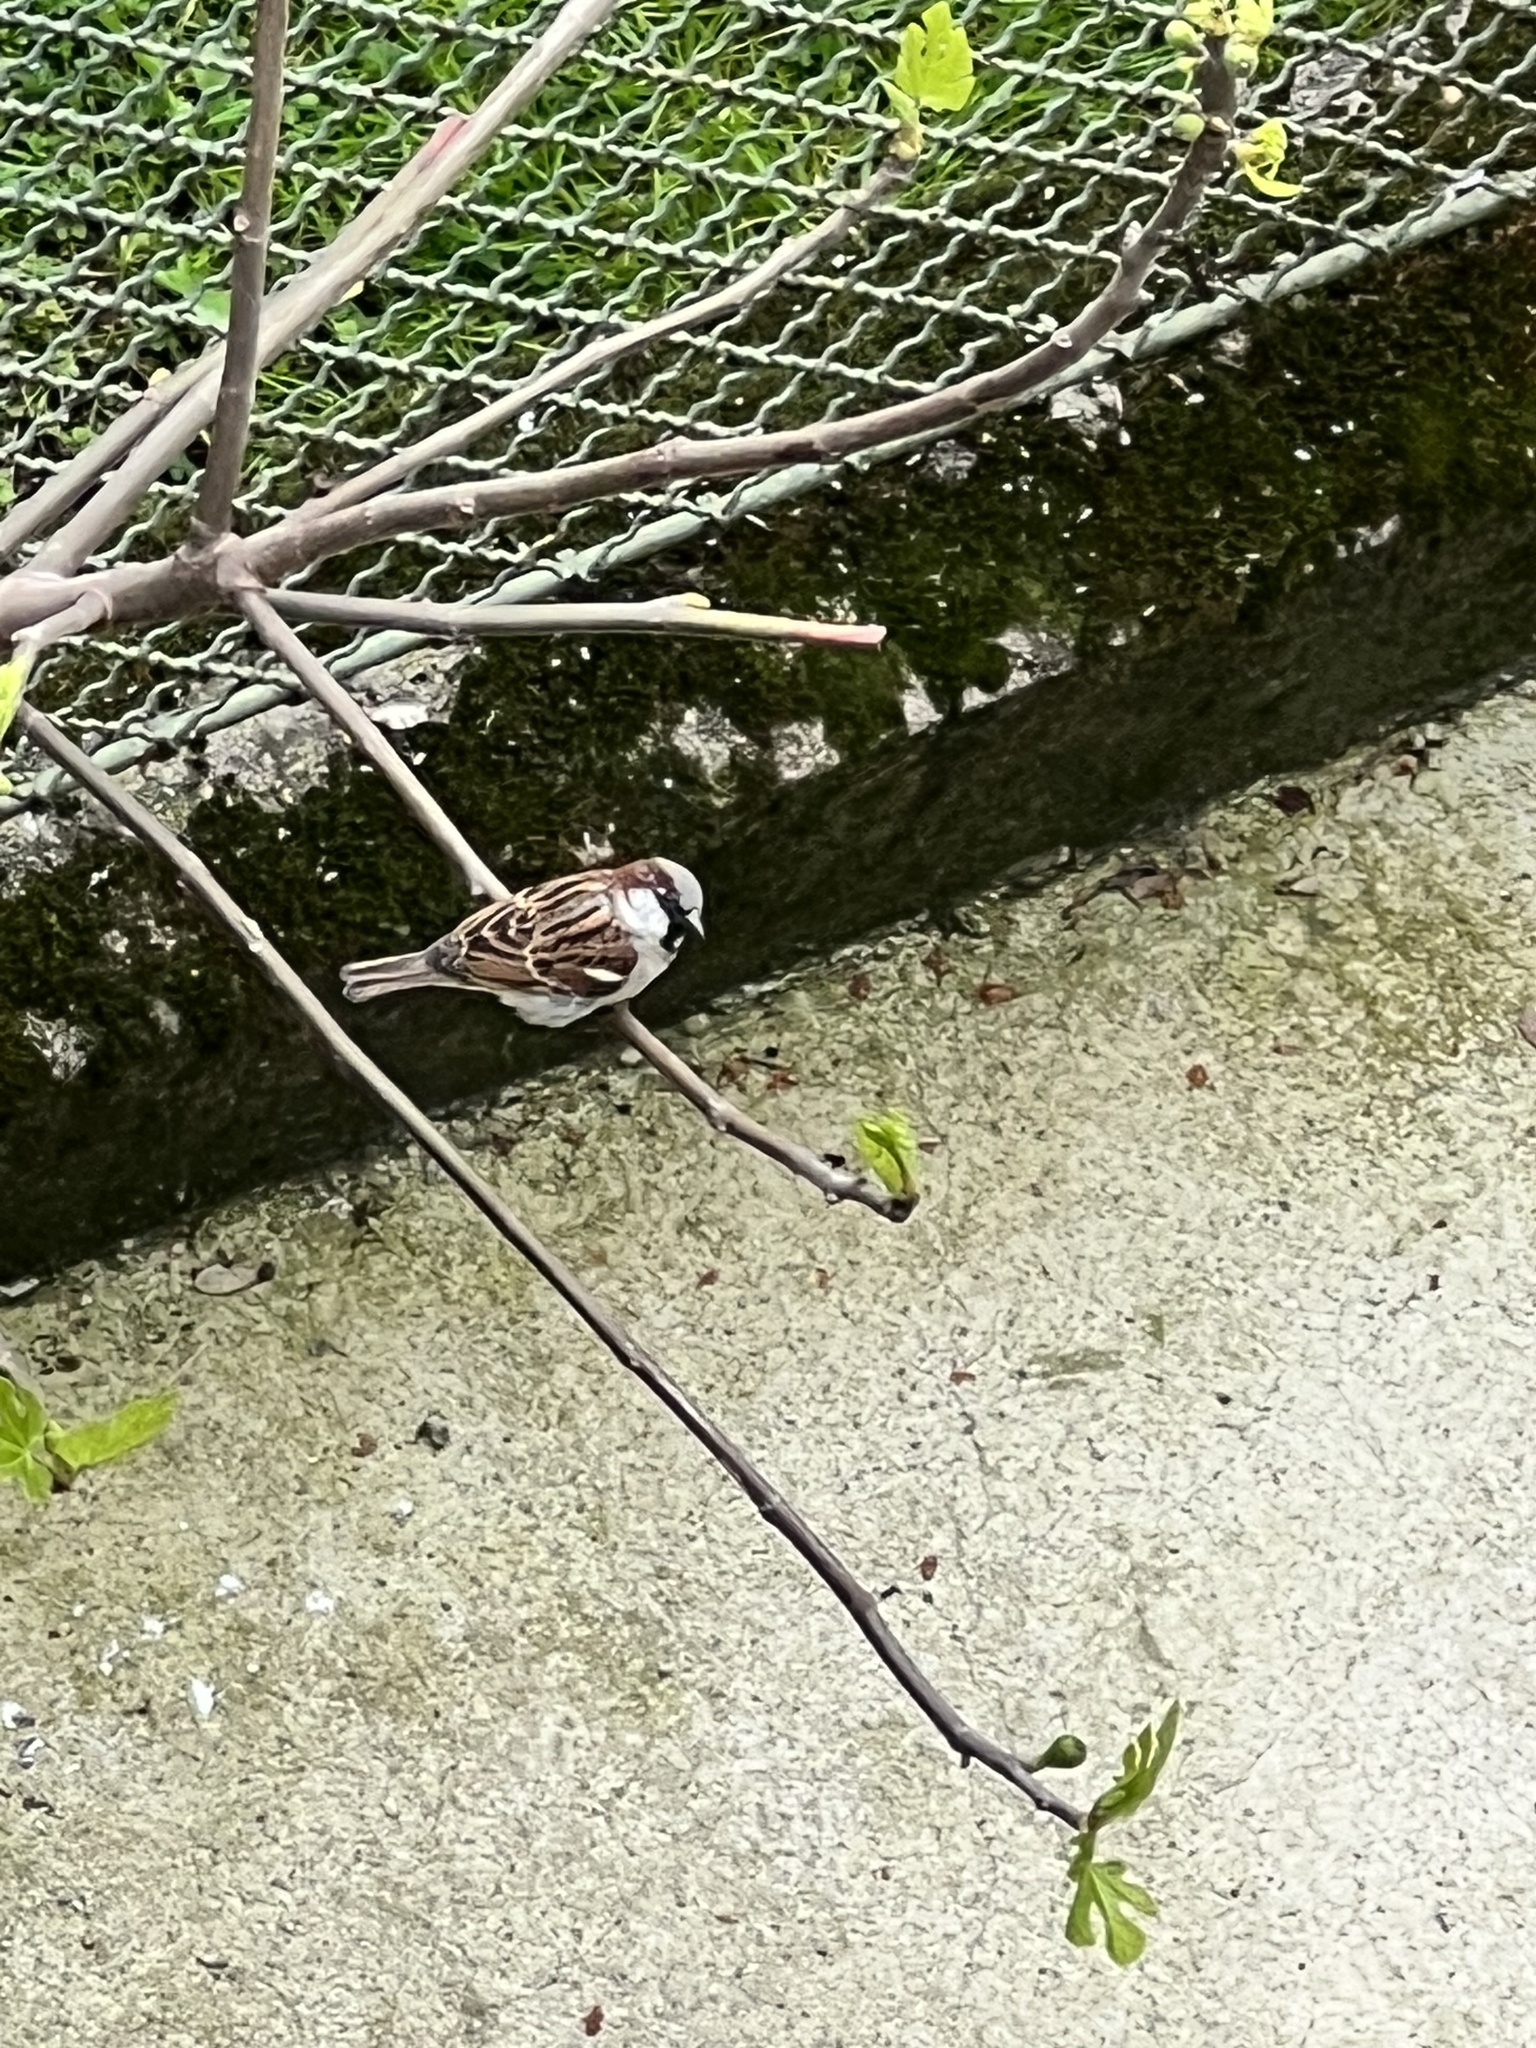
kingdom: Animalia
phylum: Chordata
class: Aves
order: Passeriformes
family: Passeridae
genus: Passer
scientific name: Passer domesticus
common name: House sparrow
